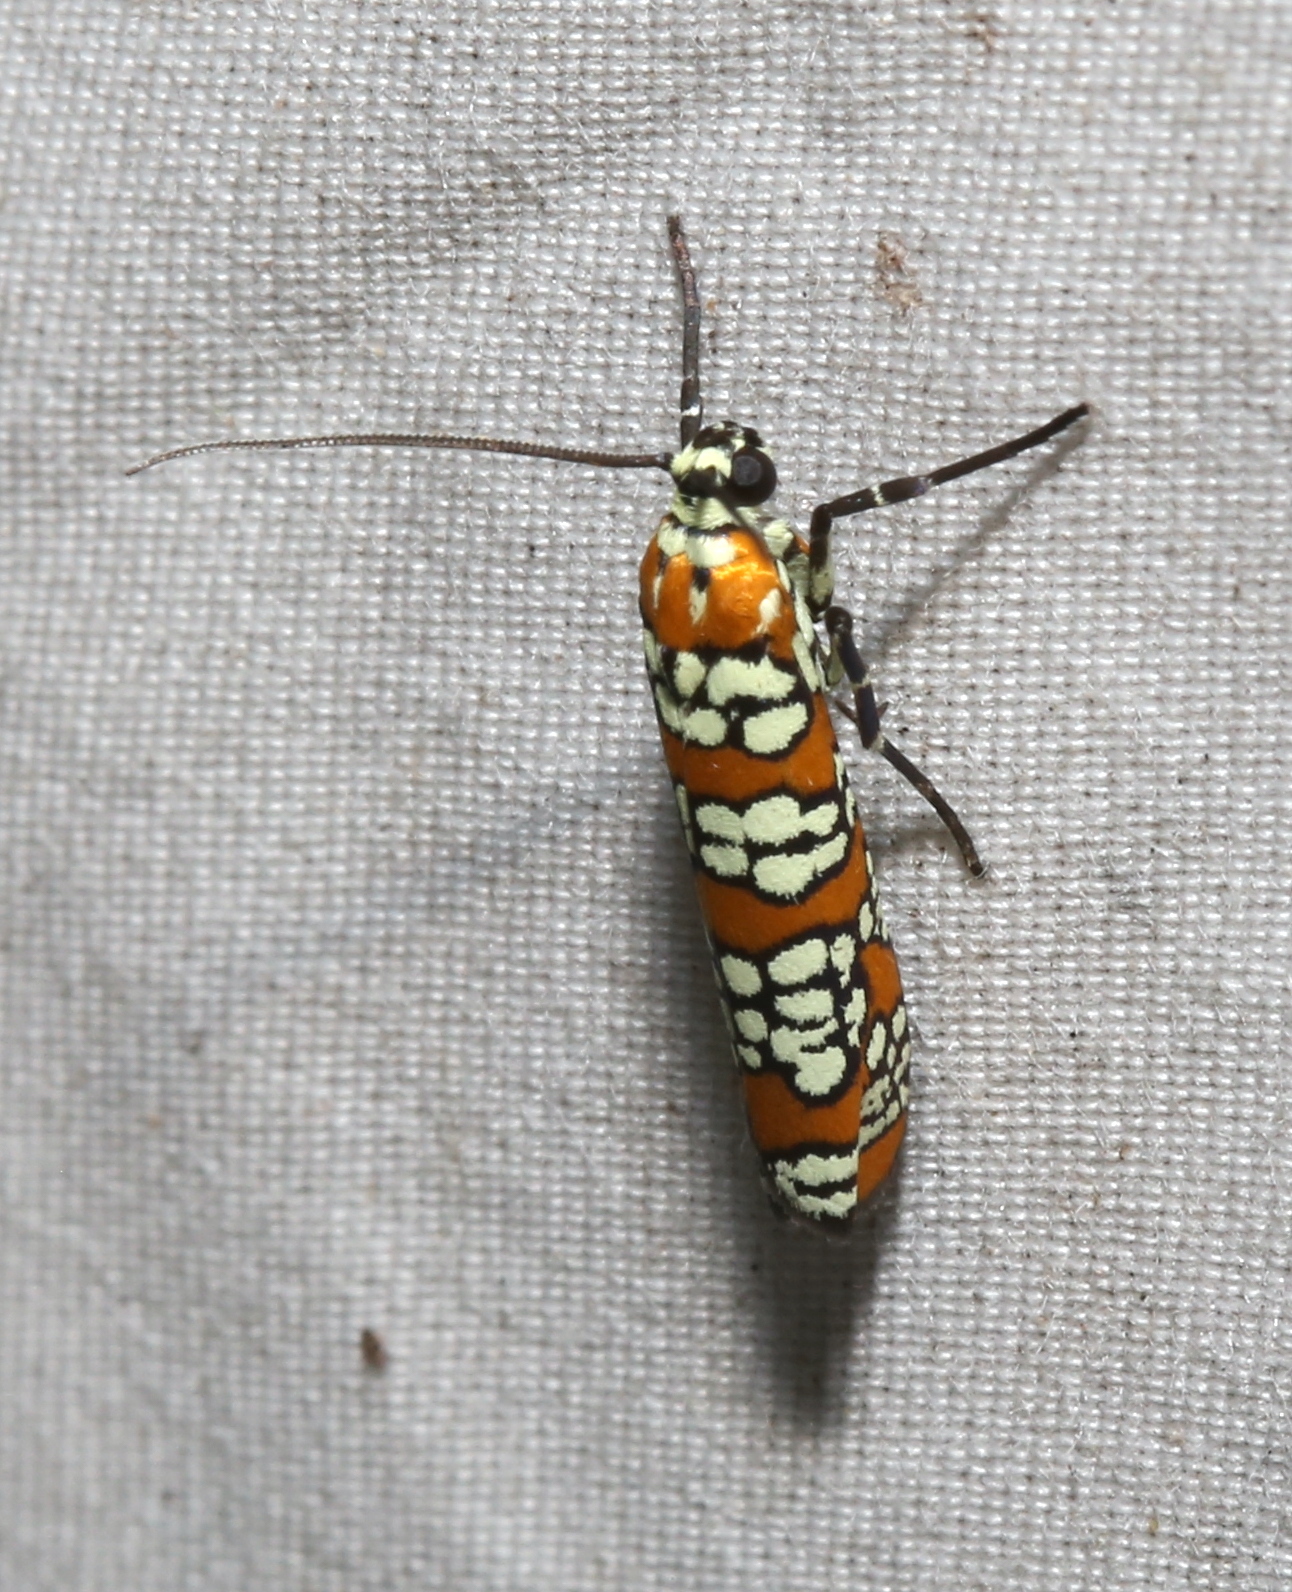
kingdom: Animalia
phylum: Arthropoda
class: Insecta
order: Lepidoptera
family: Attevidae
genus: Atteva
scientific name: Atteva punctella
